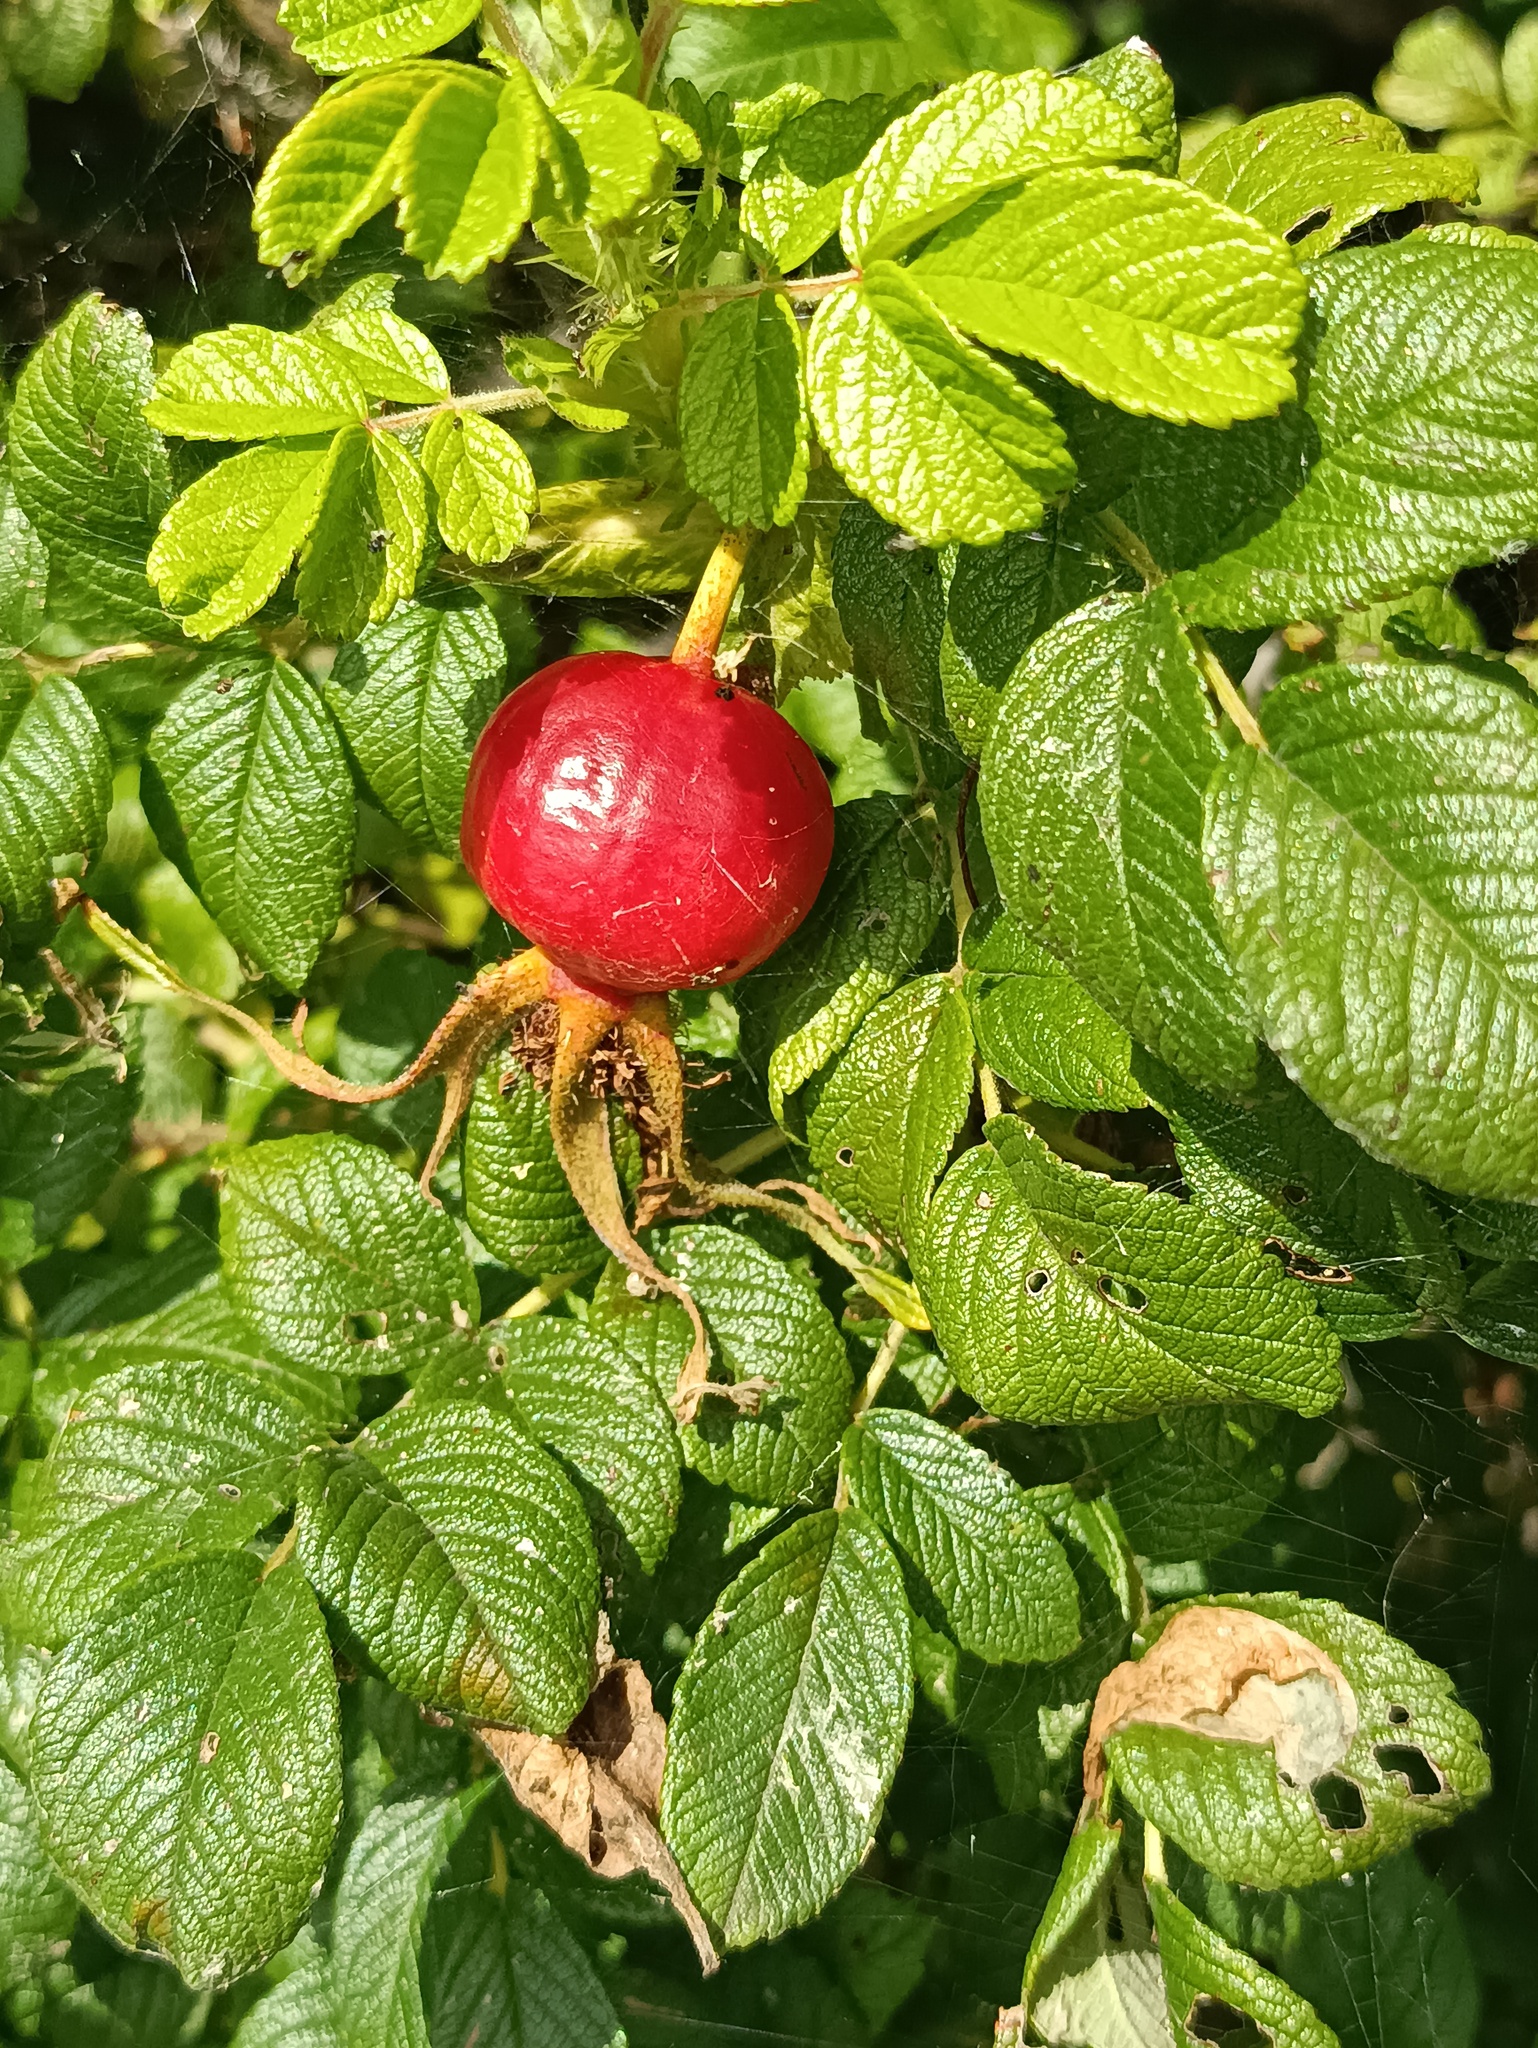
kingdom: Plantae
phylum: Tracheophyta
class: Magnoliopsida
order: Rosales
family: Rosaceae
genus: Rosa
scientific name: Rosa rugosa
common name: Japanese rose
